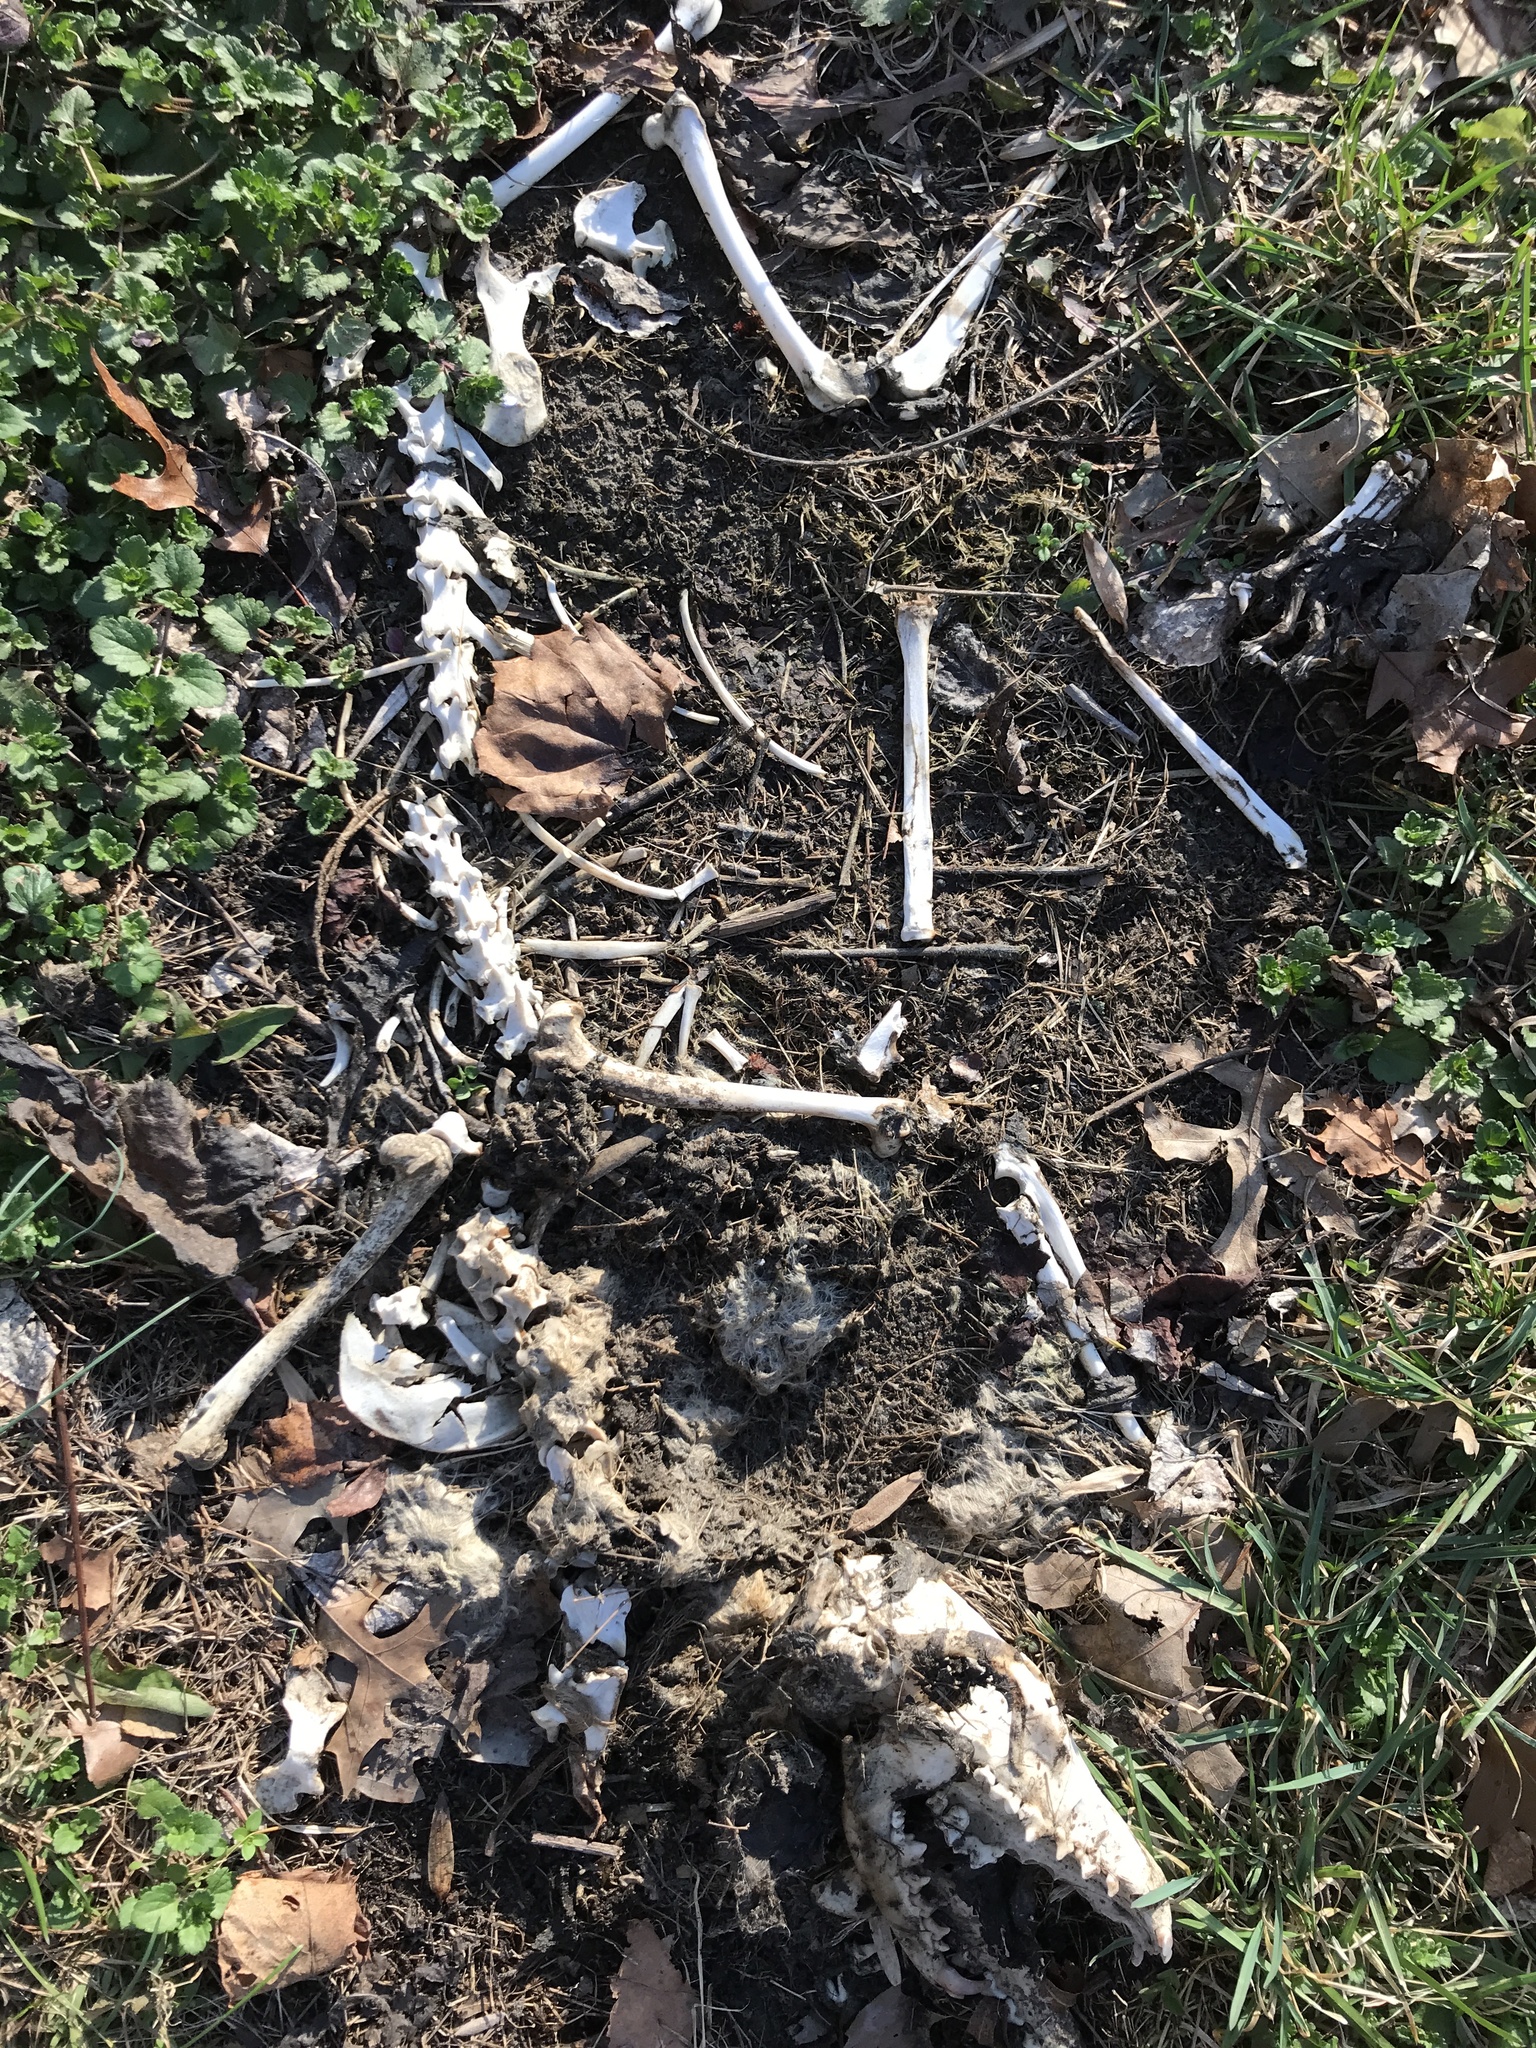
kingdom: Animalia
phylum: Chordata
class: Mammalia
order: Carnivora
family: Canidae
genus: Canis
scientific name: Canis latrans
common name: Coyote
